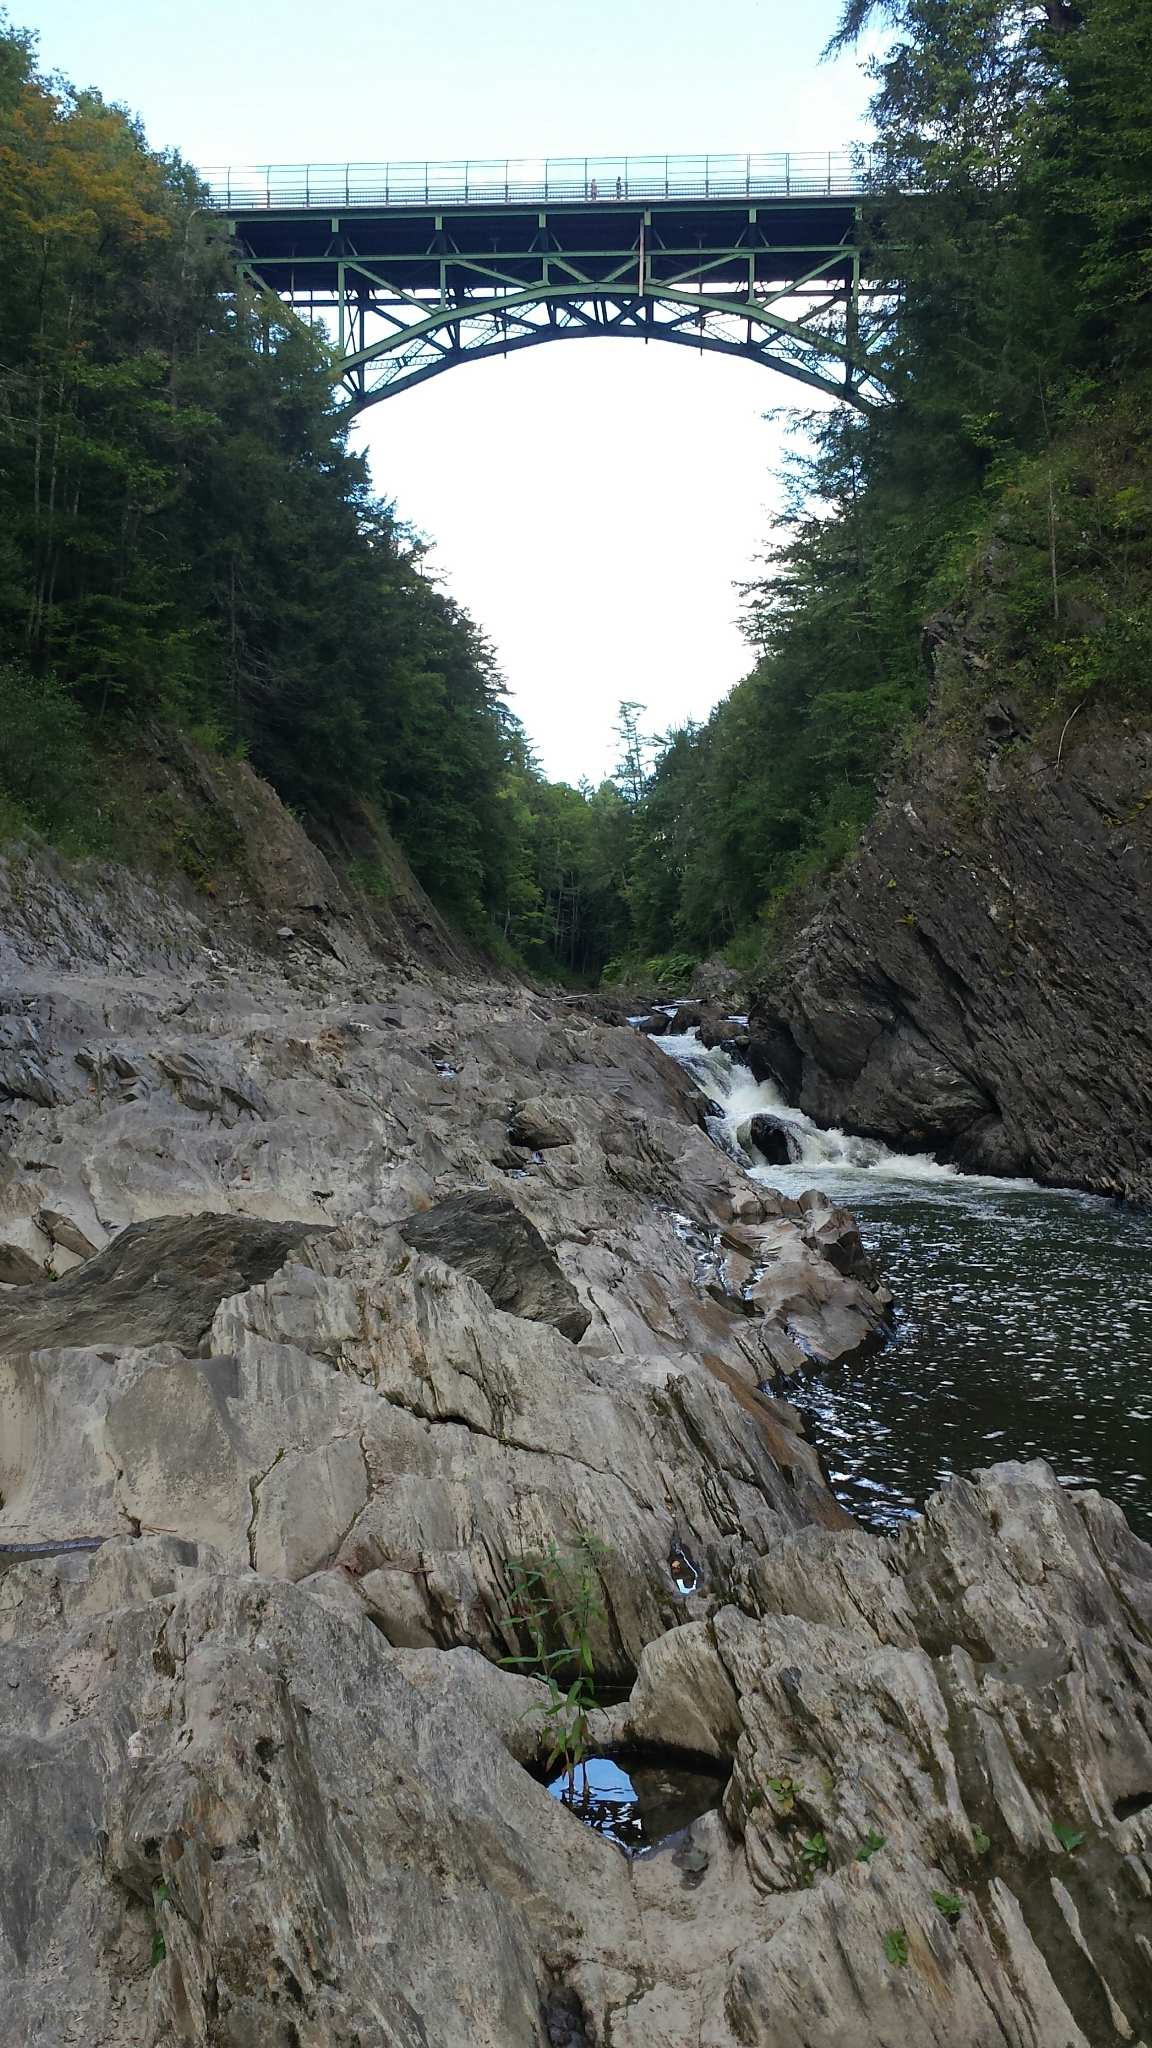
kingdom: Plantae
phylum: Tracheophyta
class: Magnoliopsida
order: Myrtales
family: Lythraceae
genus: Lythrum
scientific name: Lythrum salicaria
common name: Purple loosestrife
